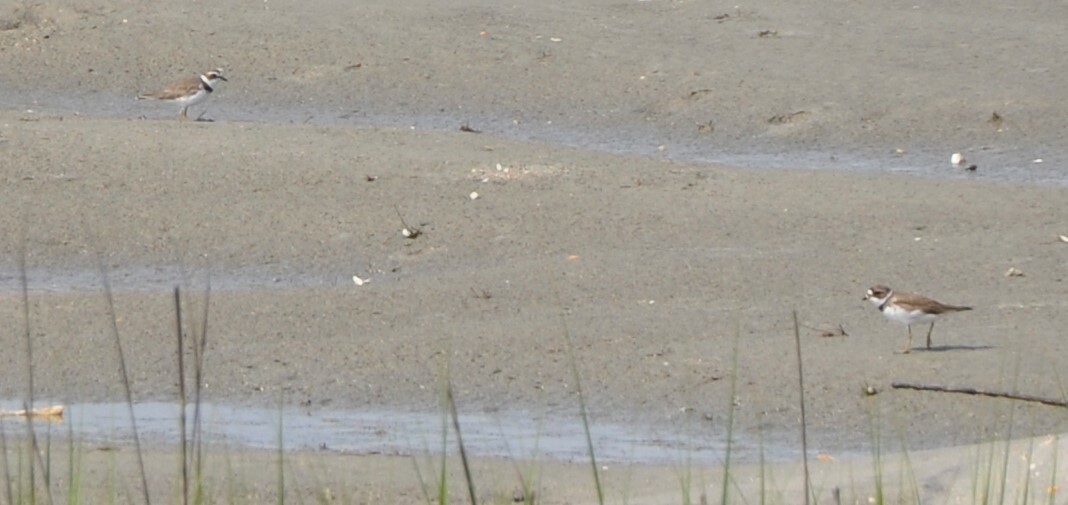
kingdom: Animalia
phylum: Chordata
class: Aves
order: Charadriiformes
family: Charadriidae
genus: Charadrius
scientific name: Charadrius semipalmatus
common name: Semipalmated plover
